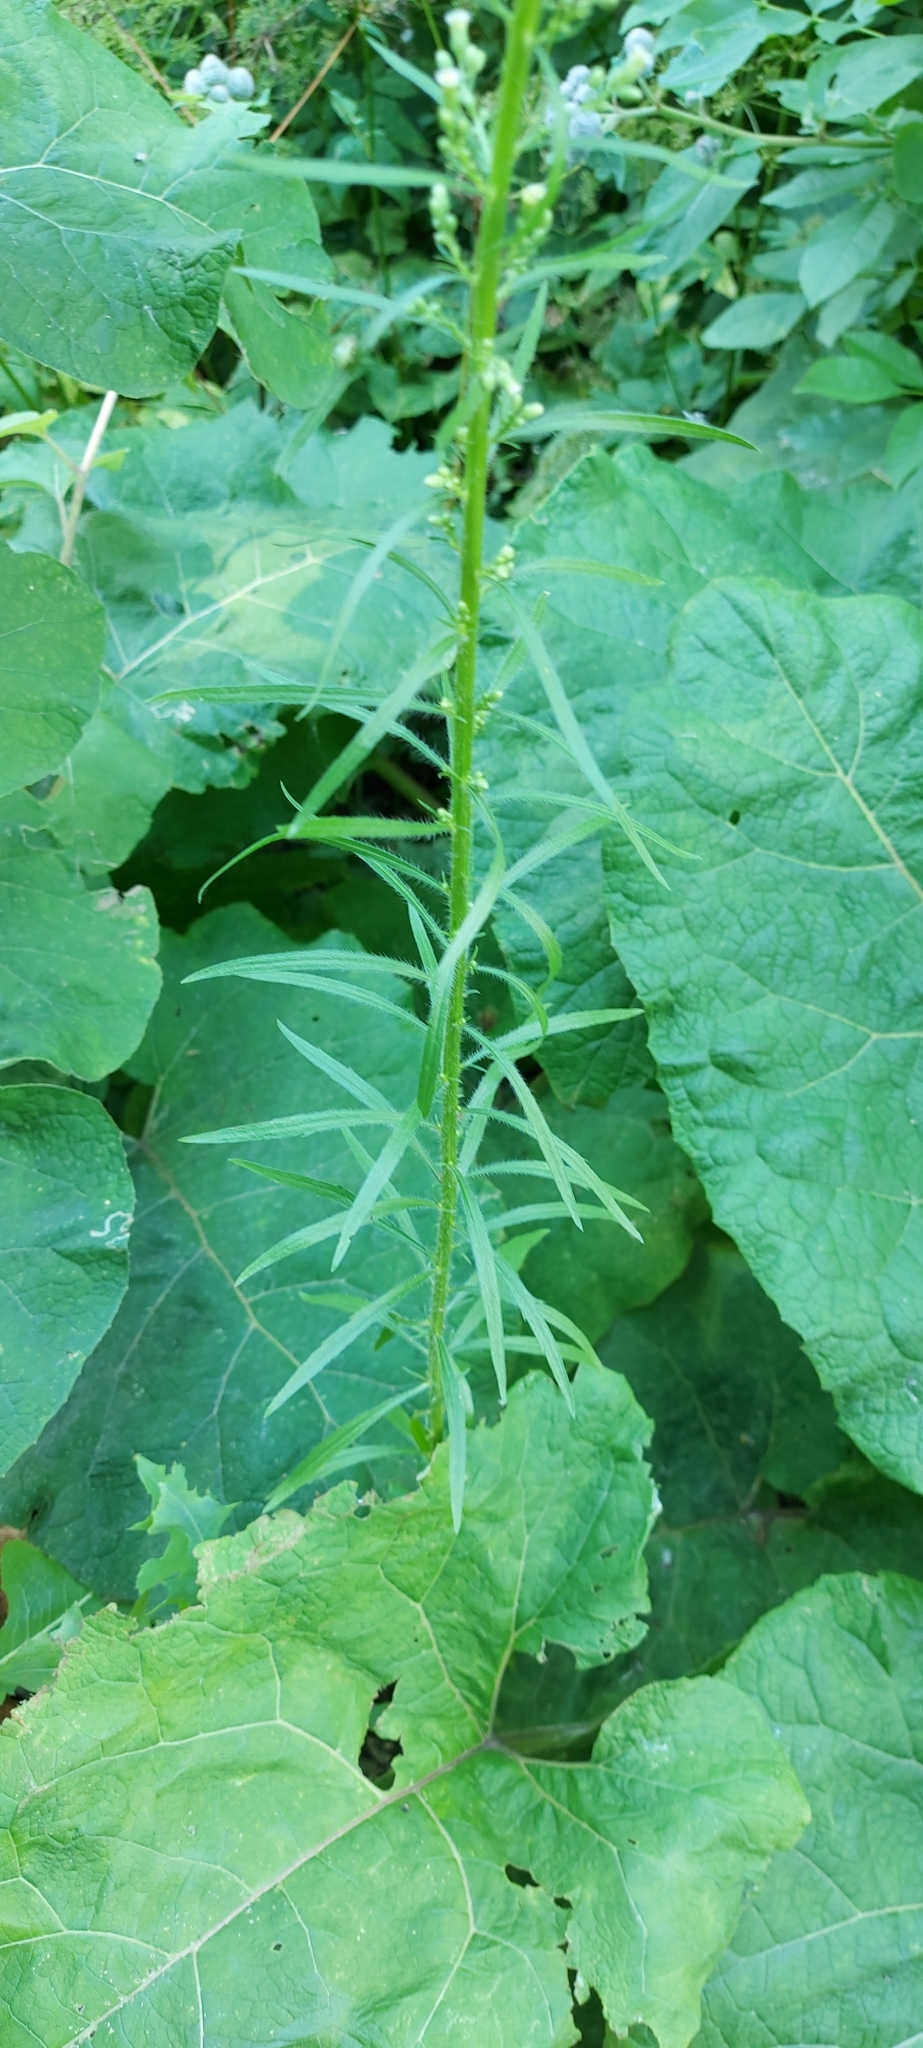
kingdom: Plantae
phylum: Tracheophyta
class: Magnoliopsida
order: Asterales
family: Asteraceae
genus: Erigeron
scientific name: Erigeron canadensis
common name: Canadian fleabane
